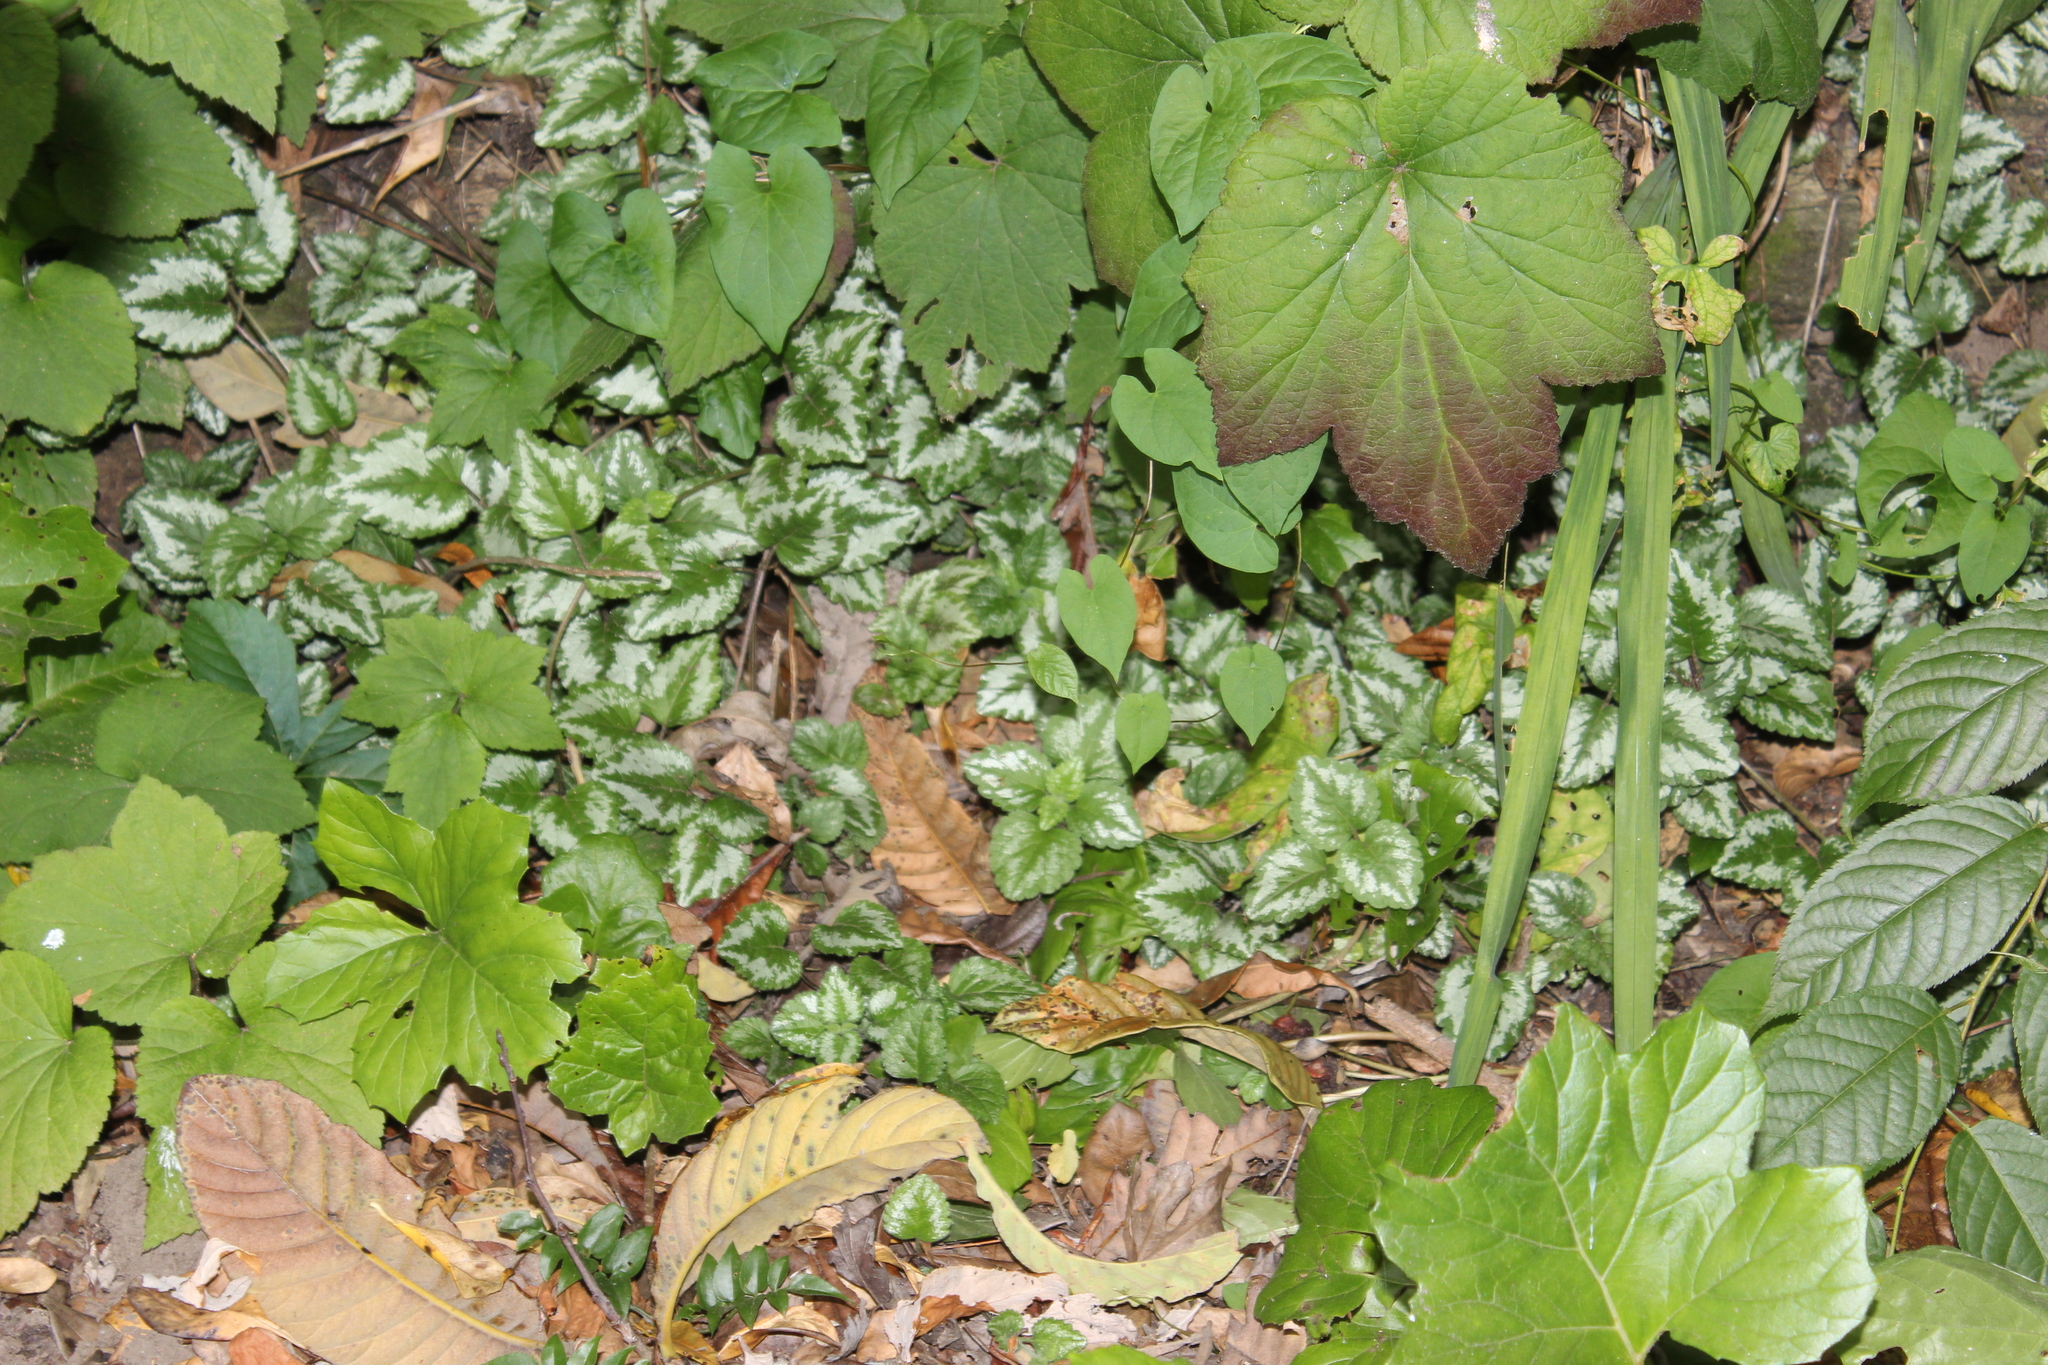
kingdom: Plantae
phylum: Tracheophyta
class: Magnoliopsida
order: Lamiales
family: Lamiaceae
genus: Lamium
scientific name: Lamium galeobdolon
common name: Yellow archangel
